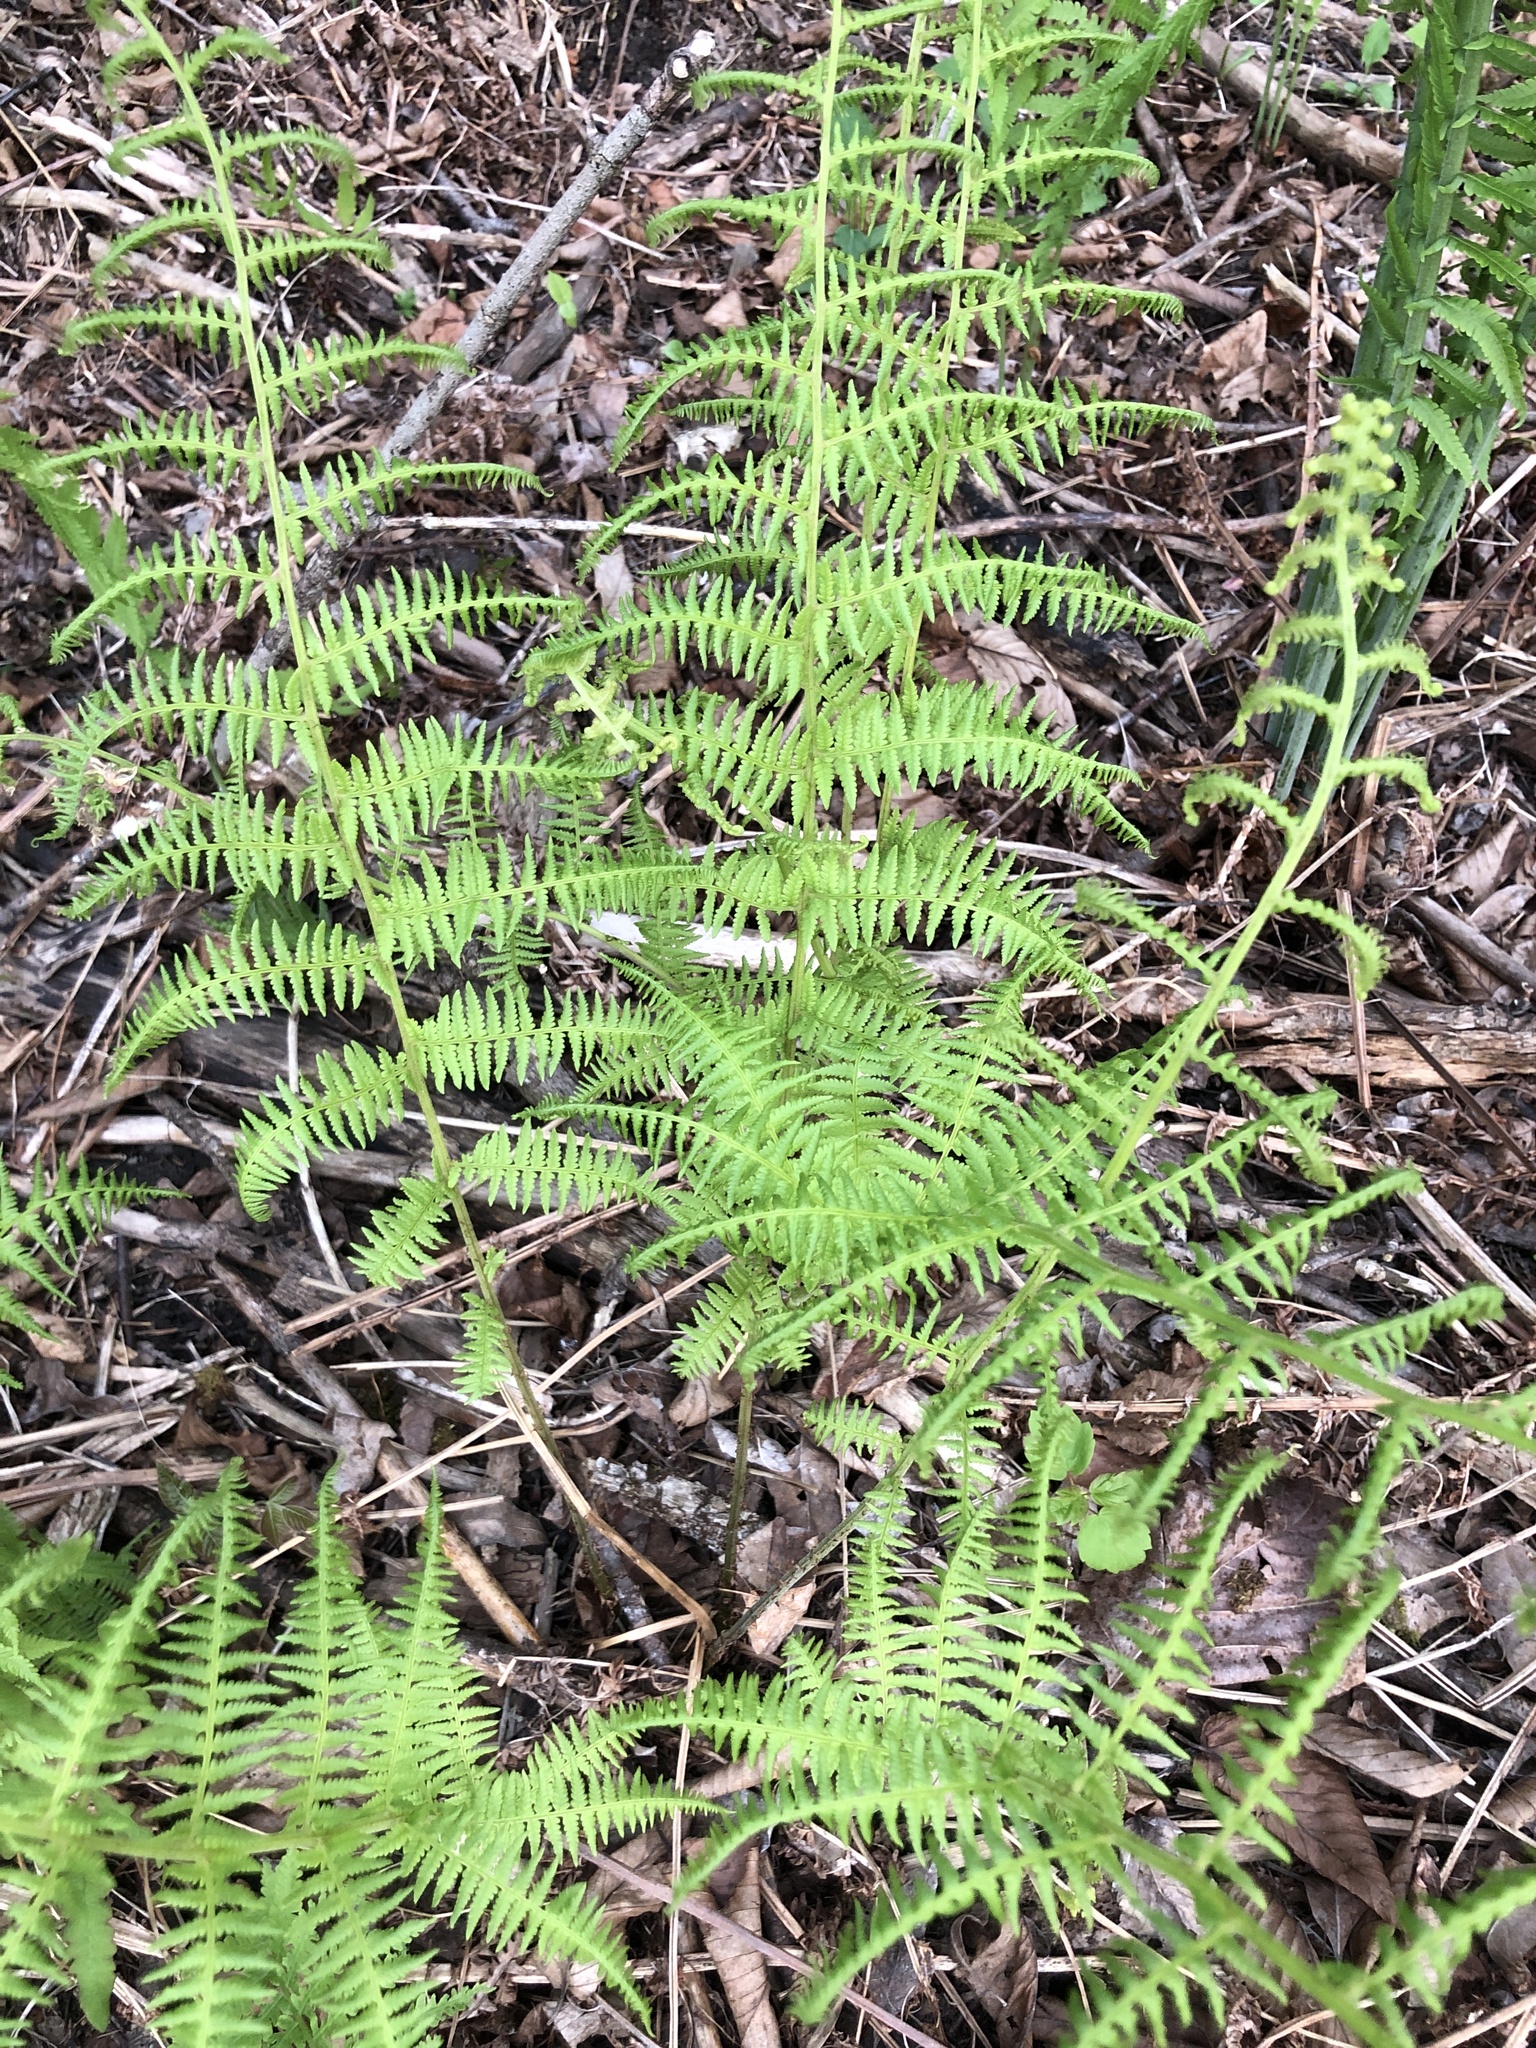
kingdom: Plantae
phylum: Tracheophyta
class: Polypodiopsida
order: Polypodiales
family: Athyriaceae
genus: Athyrium
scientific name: Athyrium angustum
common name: Northern lady fern
